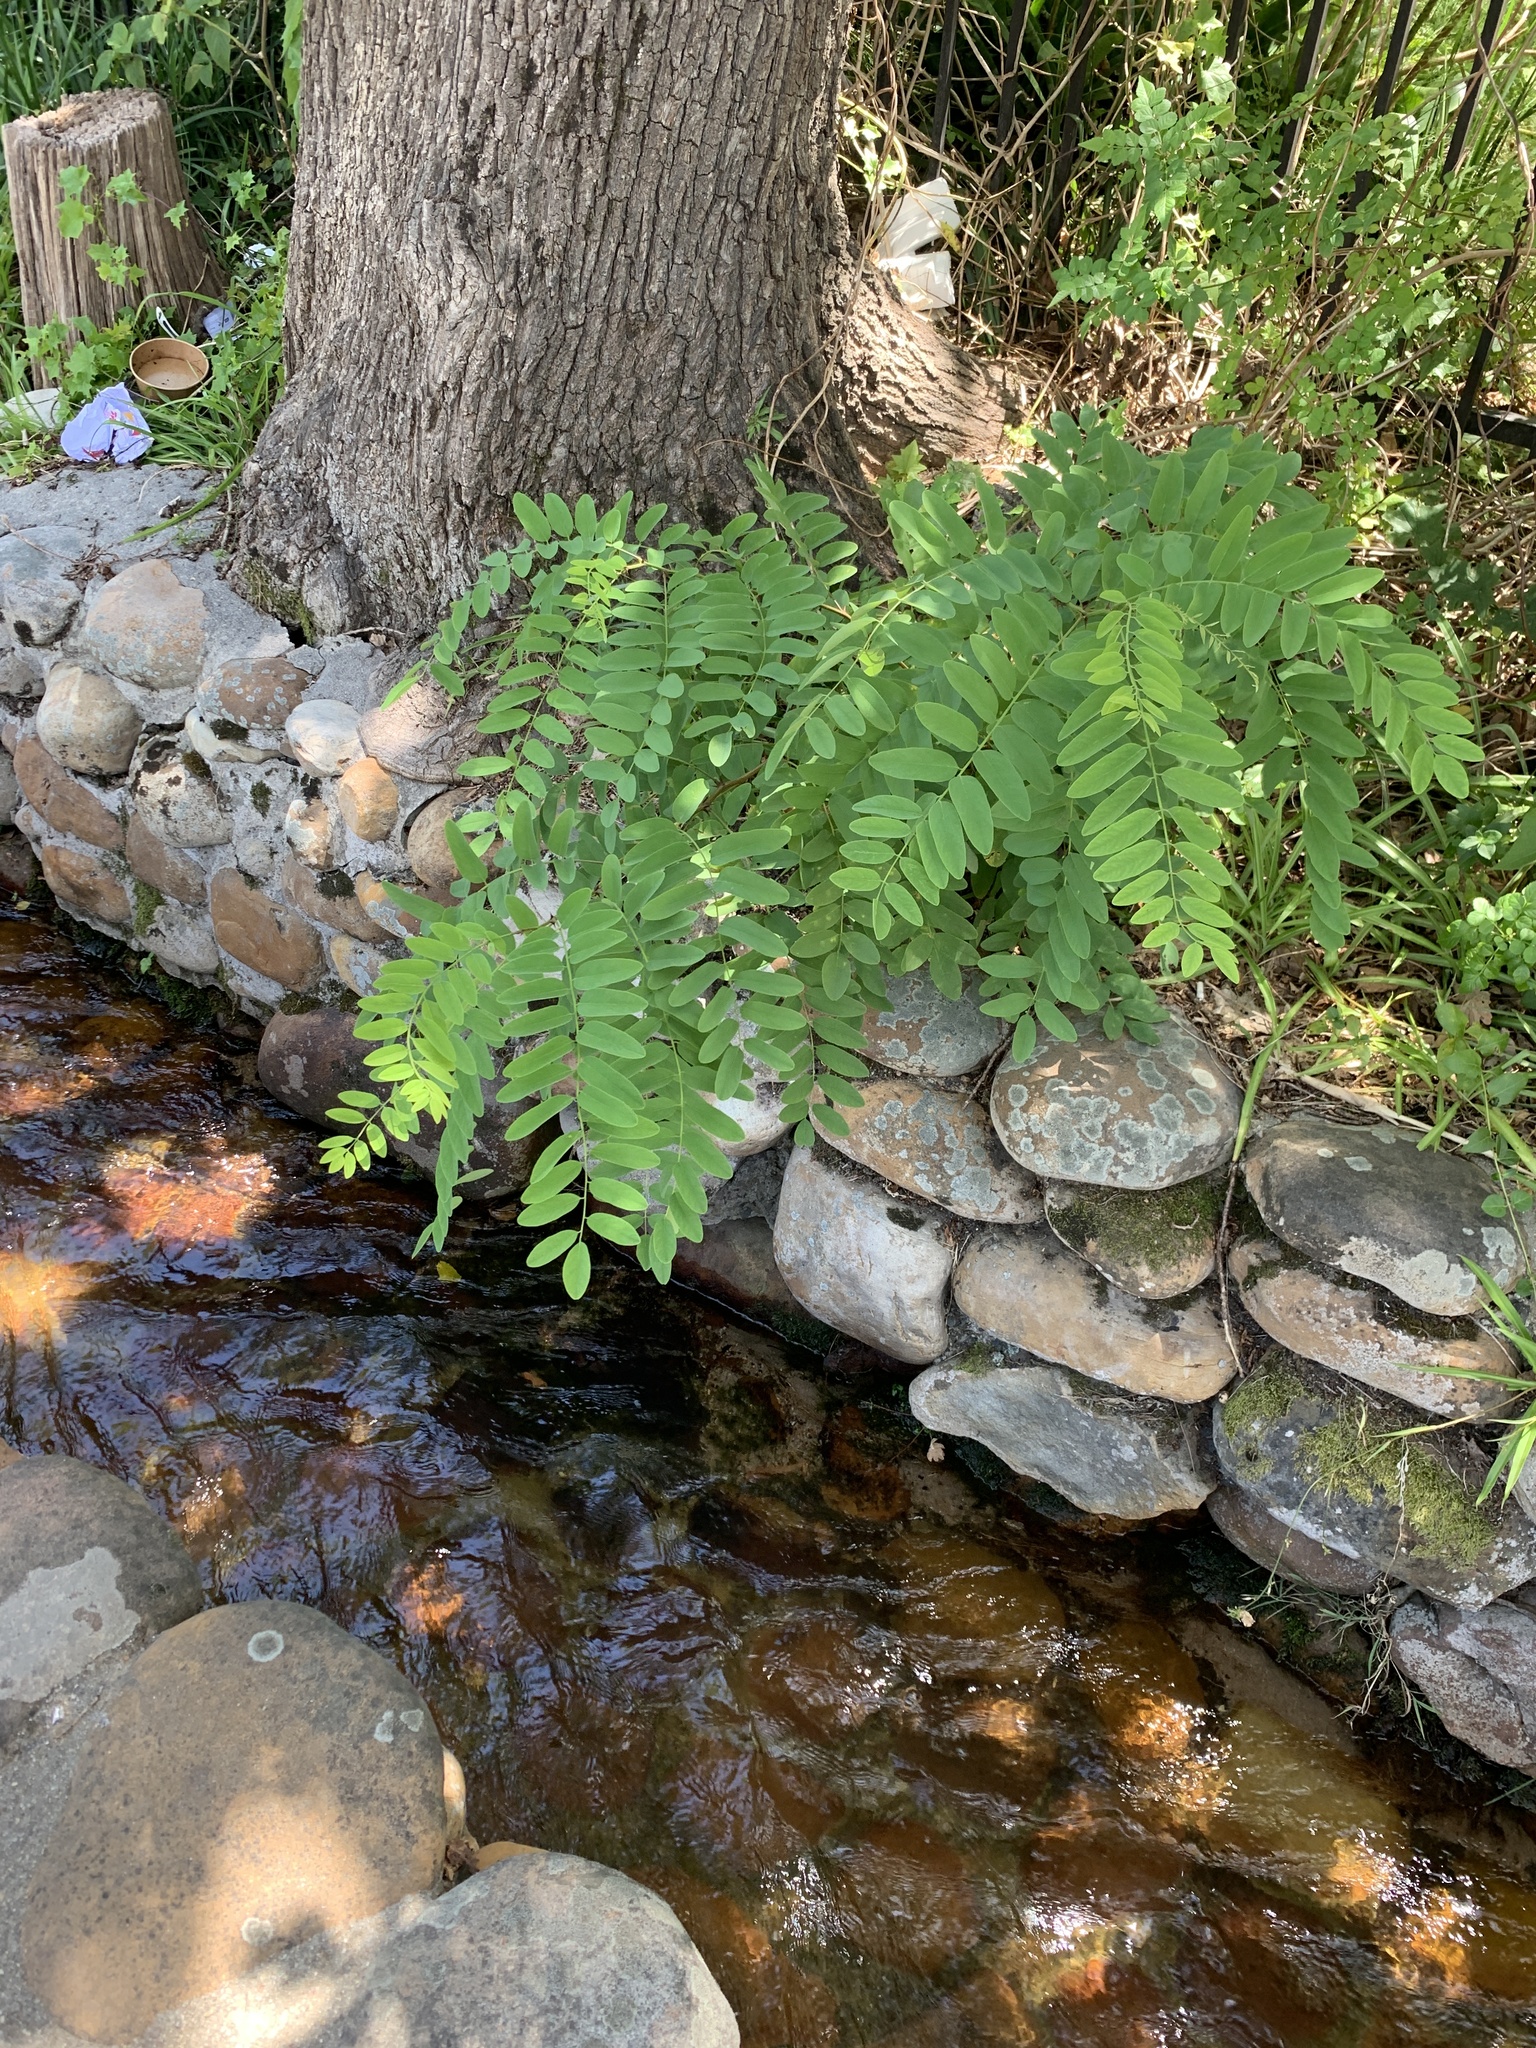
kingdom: Plantae
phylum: Tracheophyta
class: Magnoliopsida
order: Fabales
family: Fabaceae
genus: Robinia
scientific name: Robinia pseudoacacia
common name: Black locust
